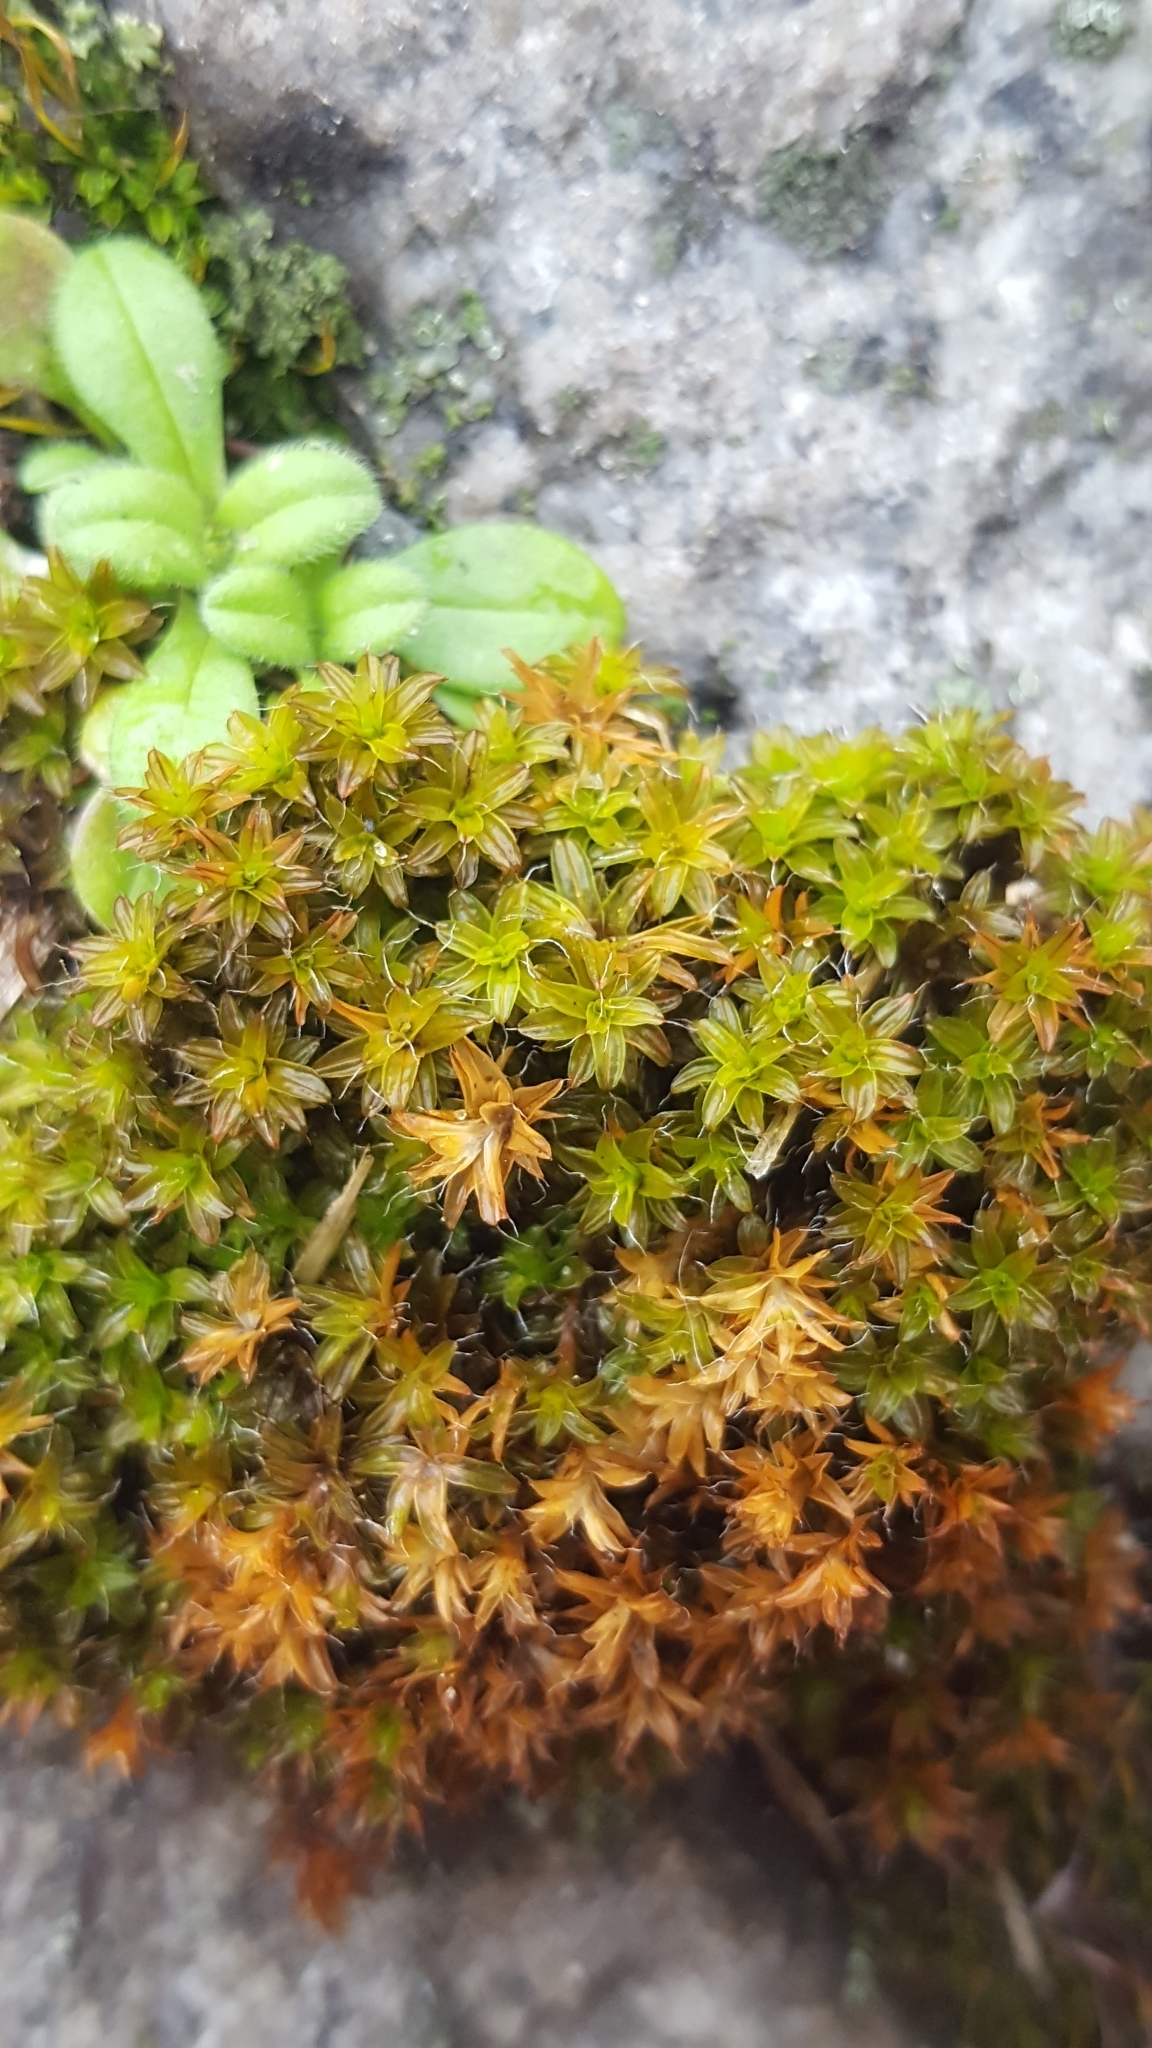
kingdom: Plantae
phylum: Bryophyta
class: Bryopsida
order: Pottiales
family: Pottiaceae
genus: Syntrichia
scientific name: Syntrichia ruralis
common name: Sidewalk screw moss
